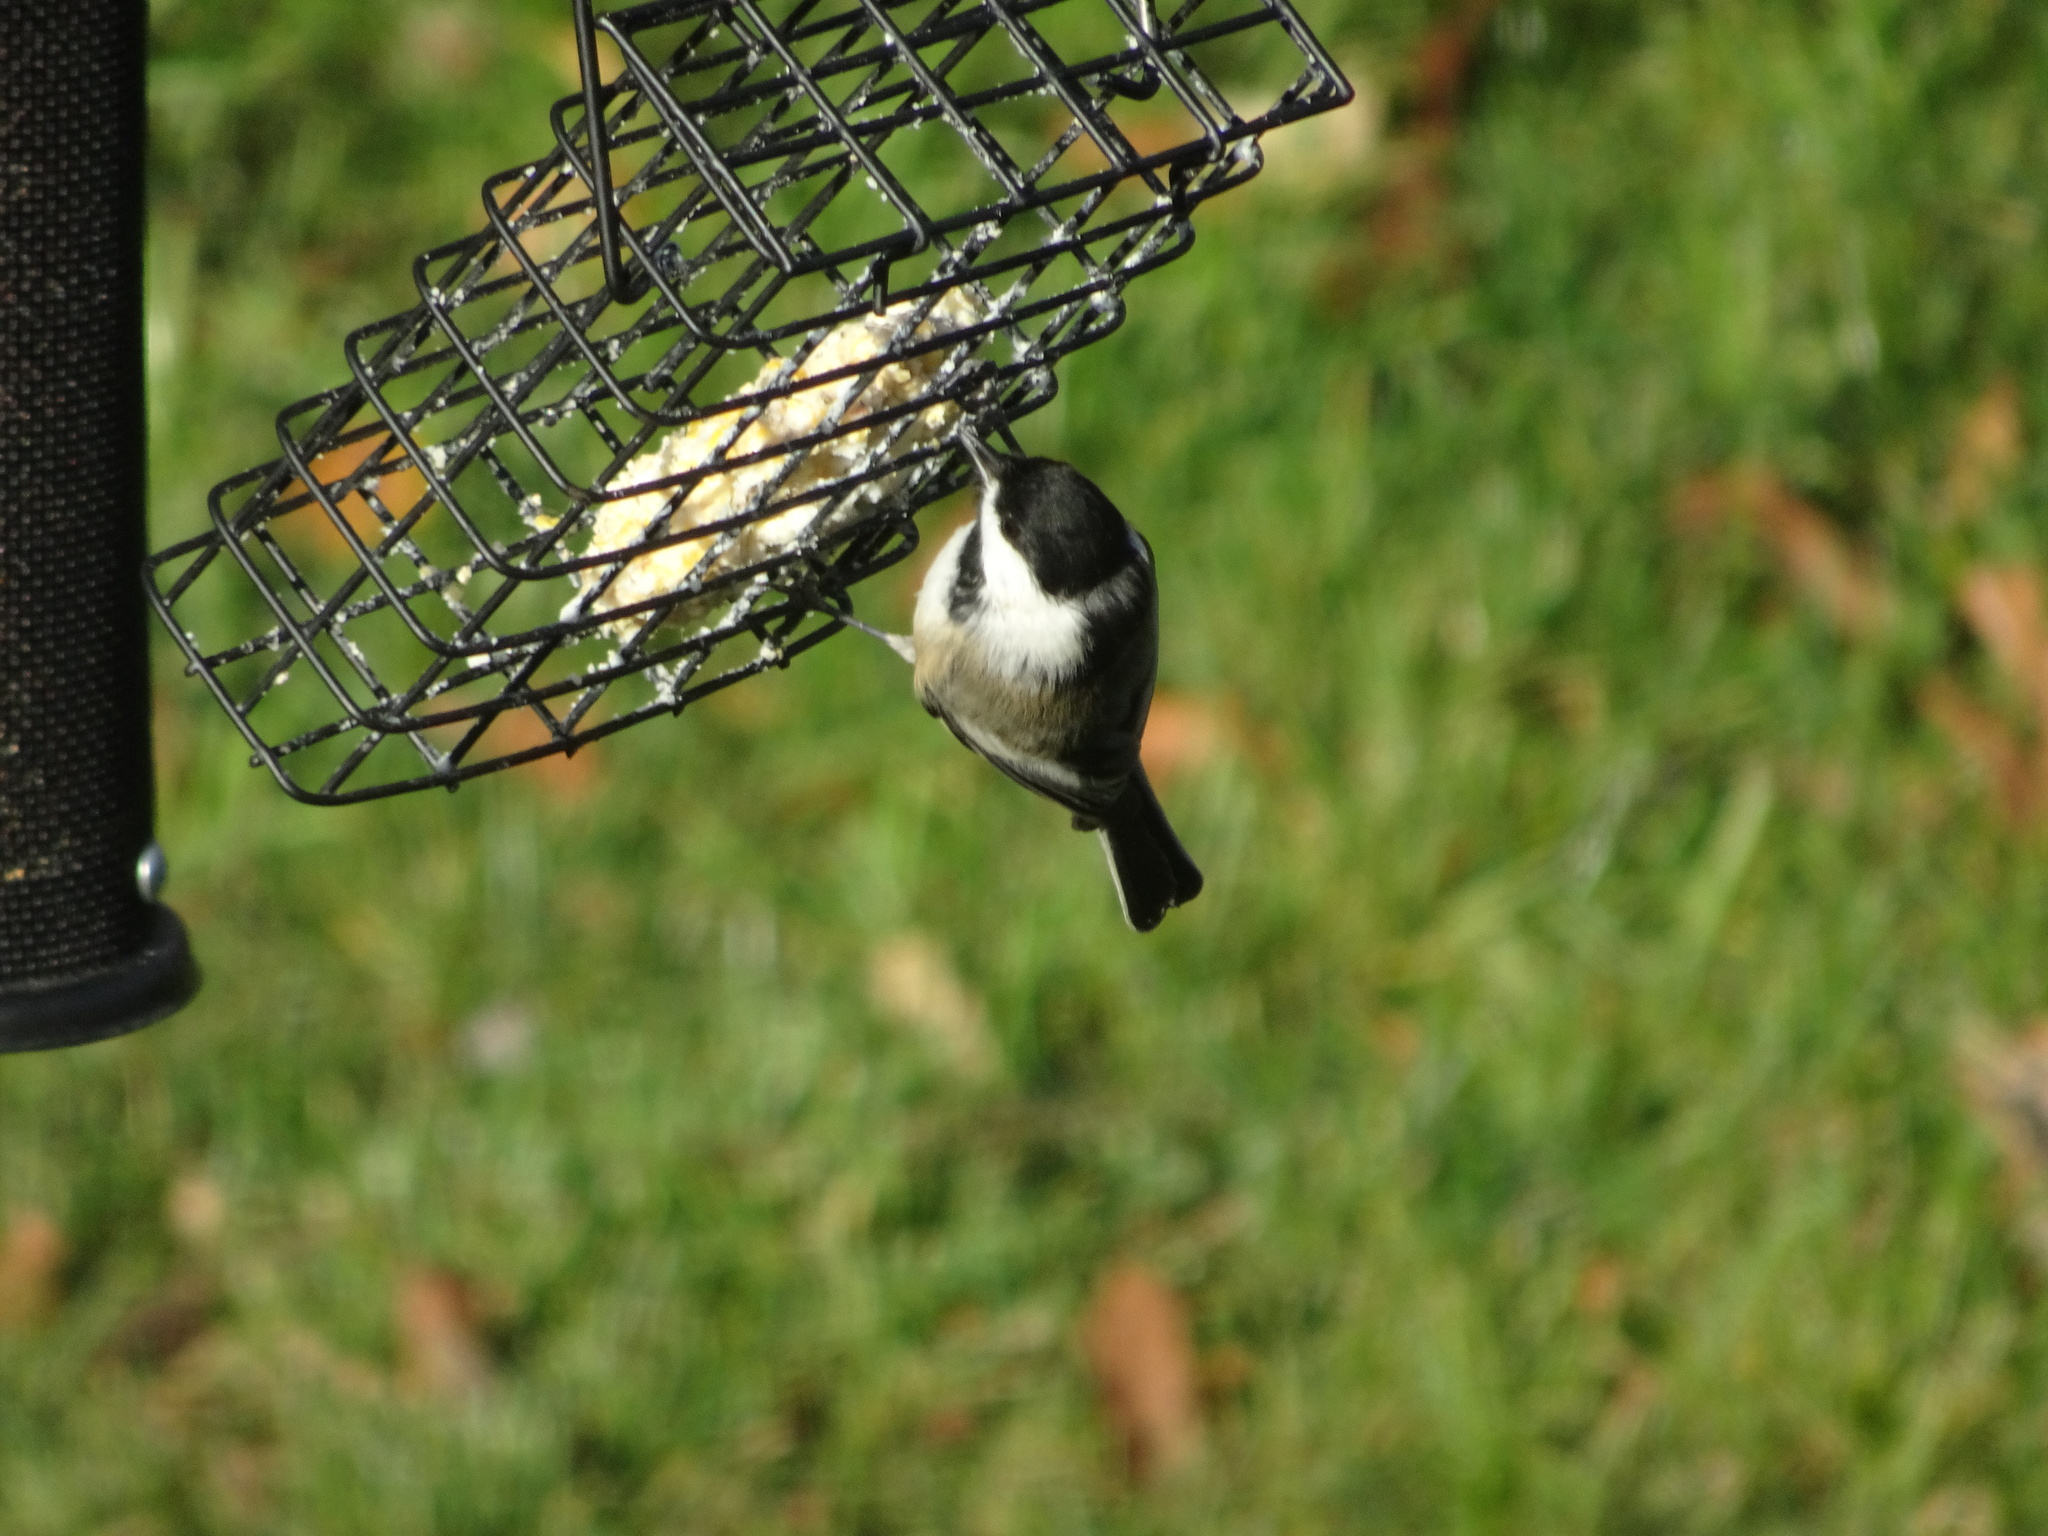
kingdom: Animalia
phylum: Chordata
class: Aves
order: Passeriformes
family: Paridae
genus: Poecile
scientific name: Poecile atricapillus
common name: Black-capped chickadee
